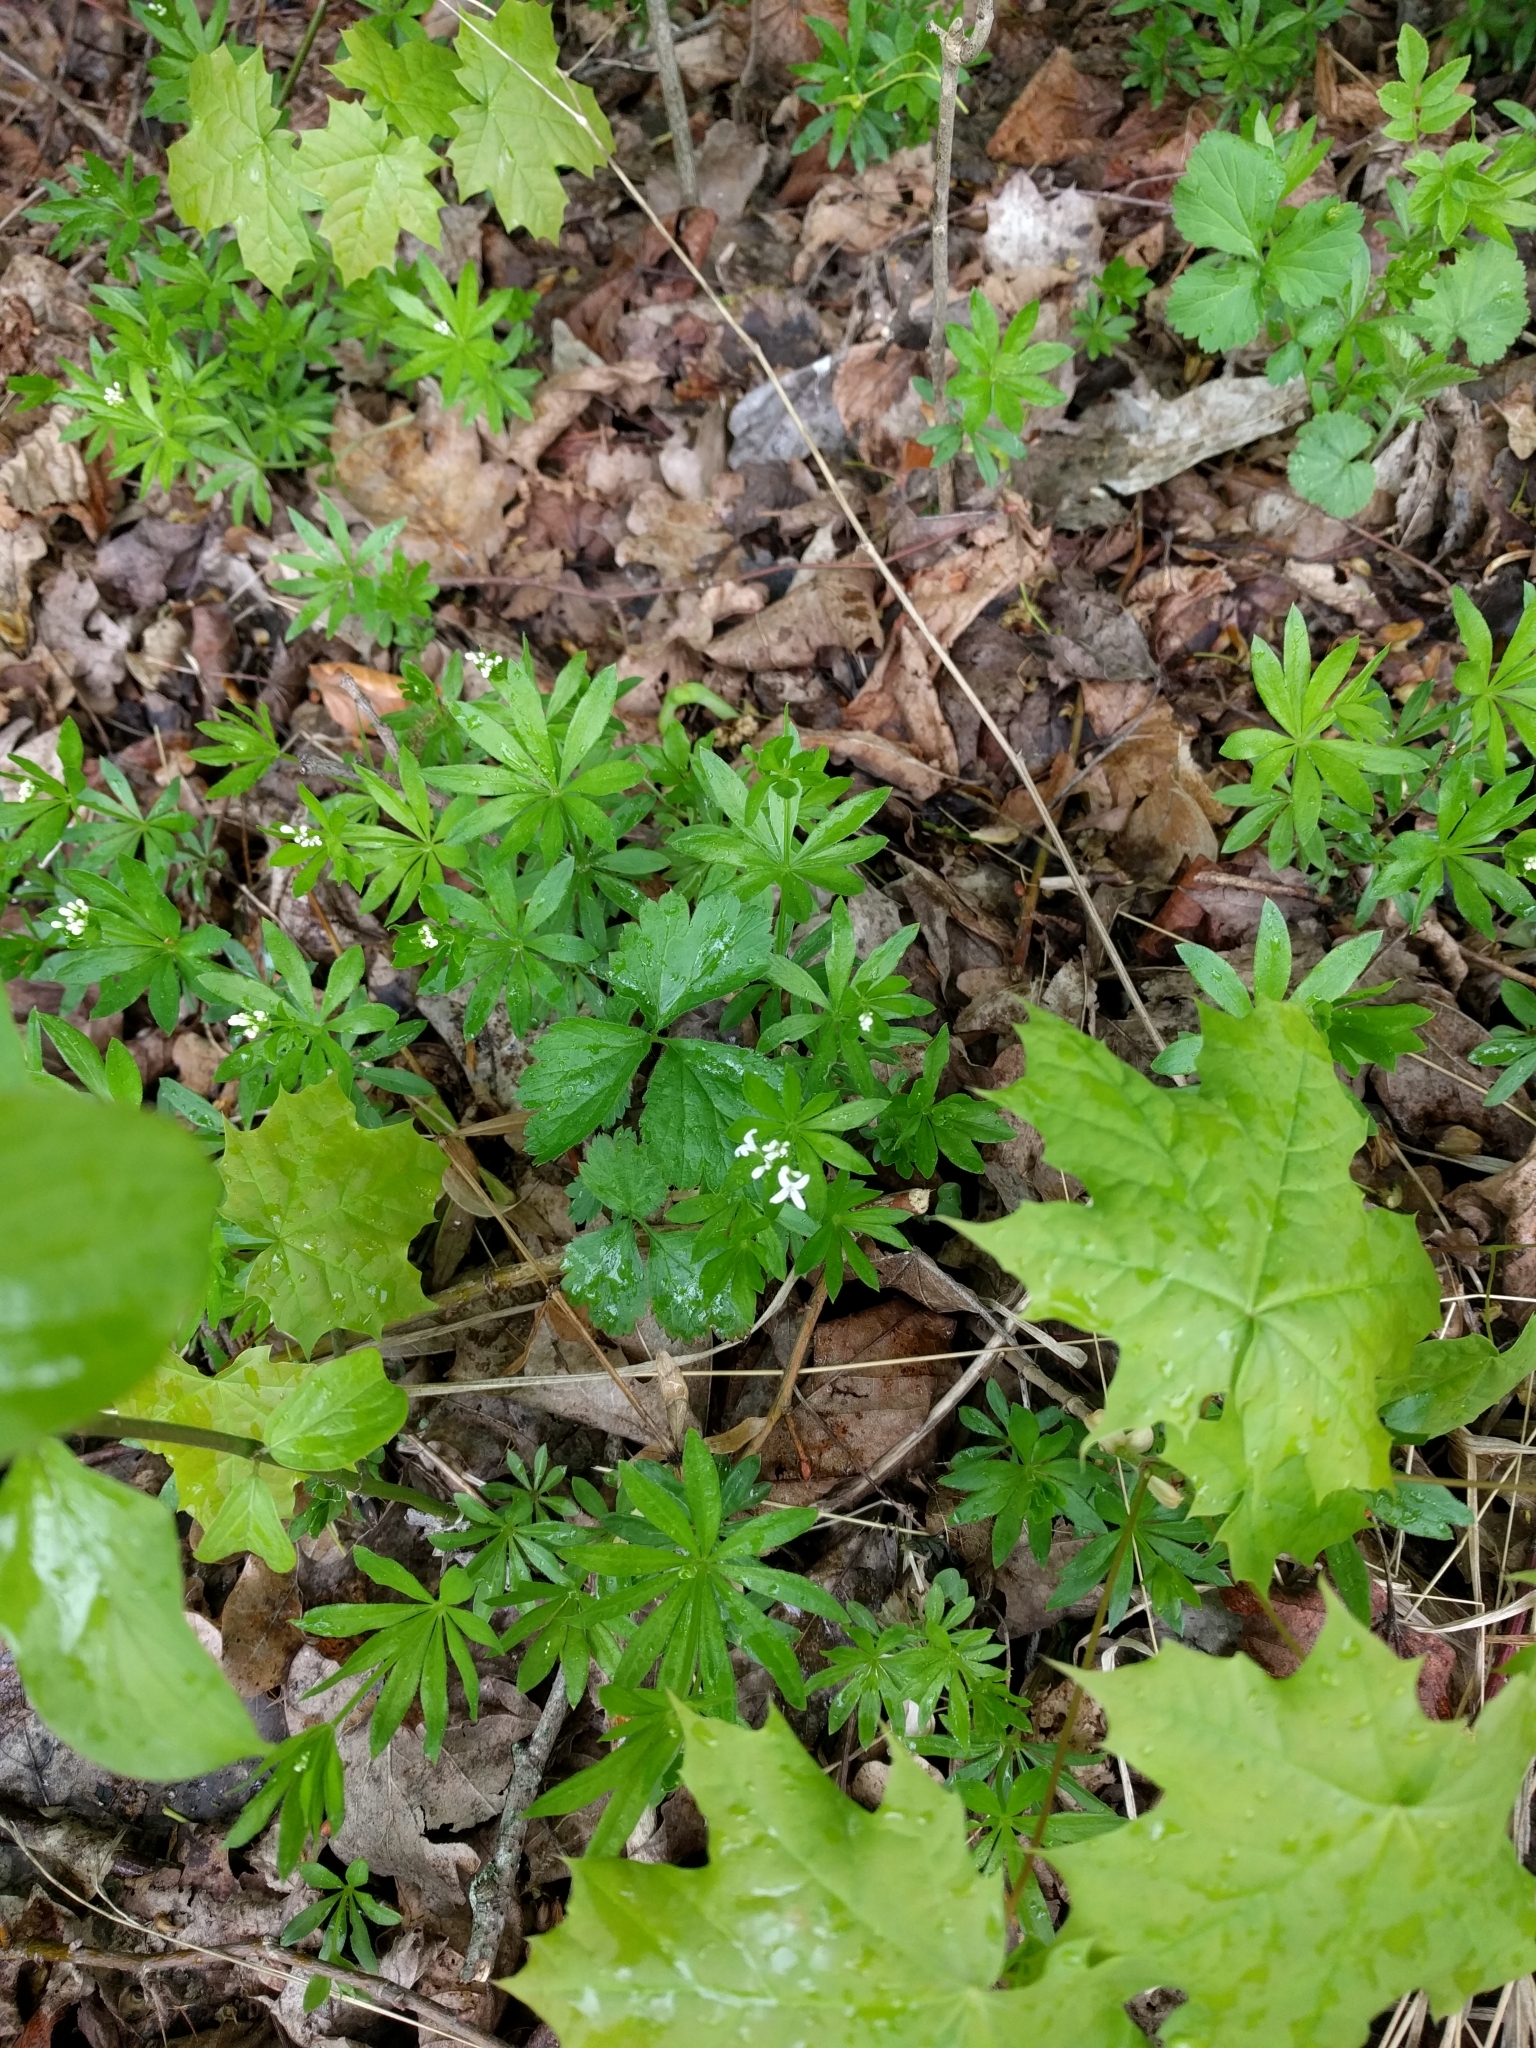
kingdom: Plantae
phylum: Tracheophyta
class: Magnoliopsida
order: Gentianales
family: Rubiaceae
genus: Galium
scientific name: Galium odoratum
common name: Sweet woodruff
